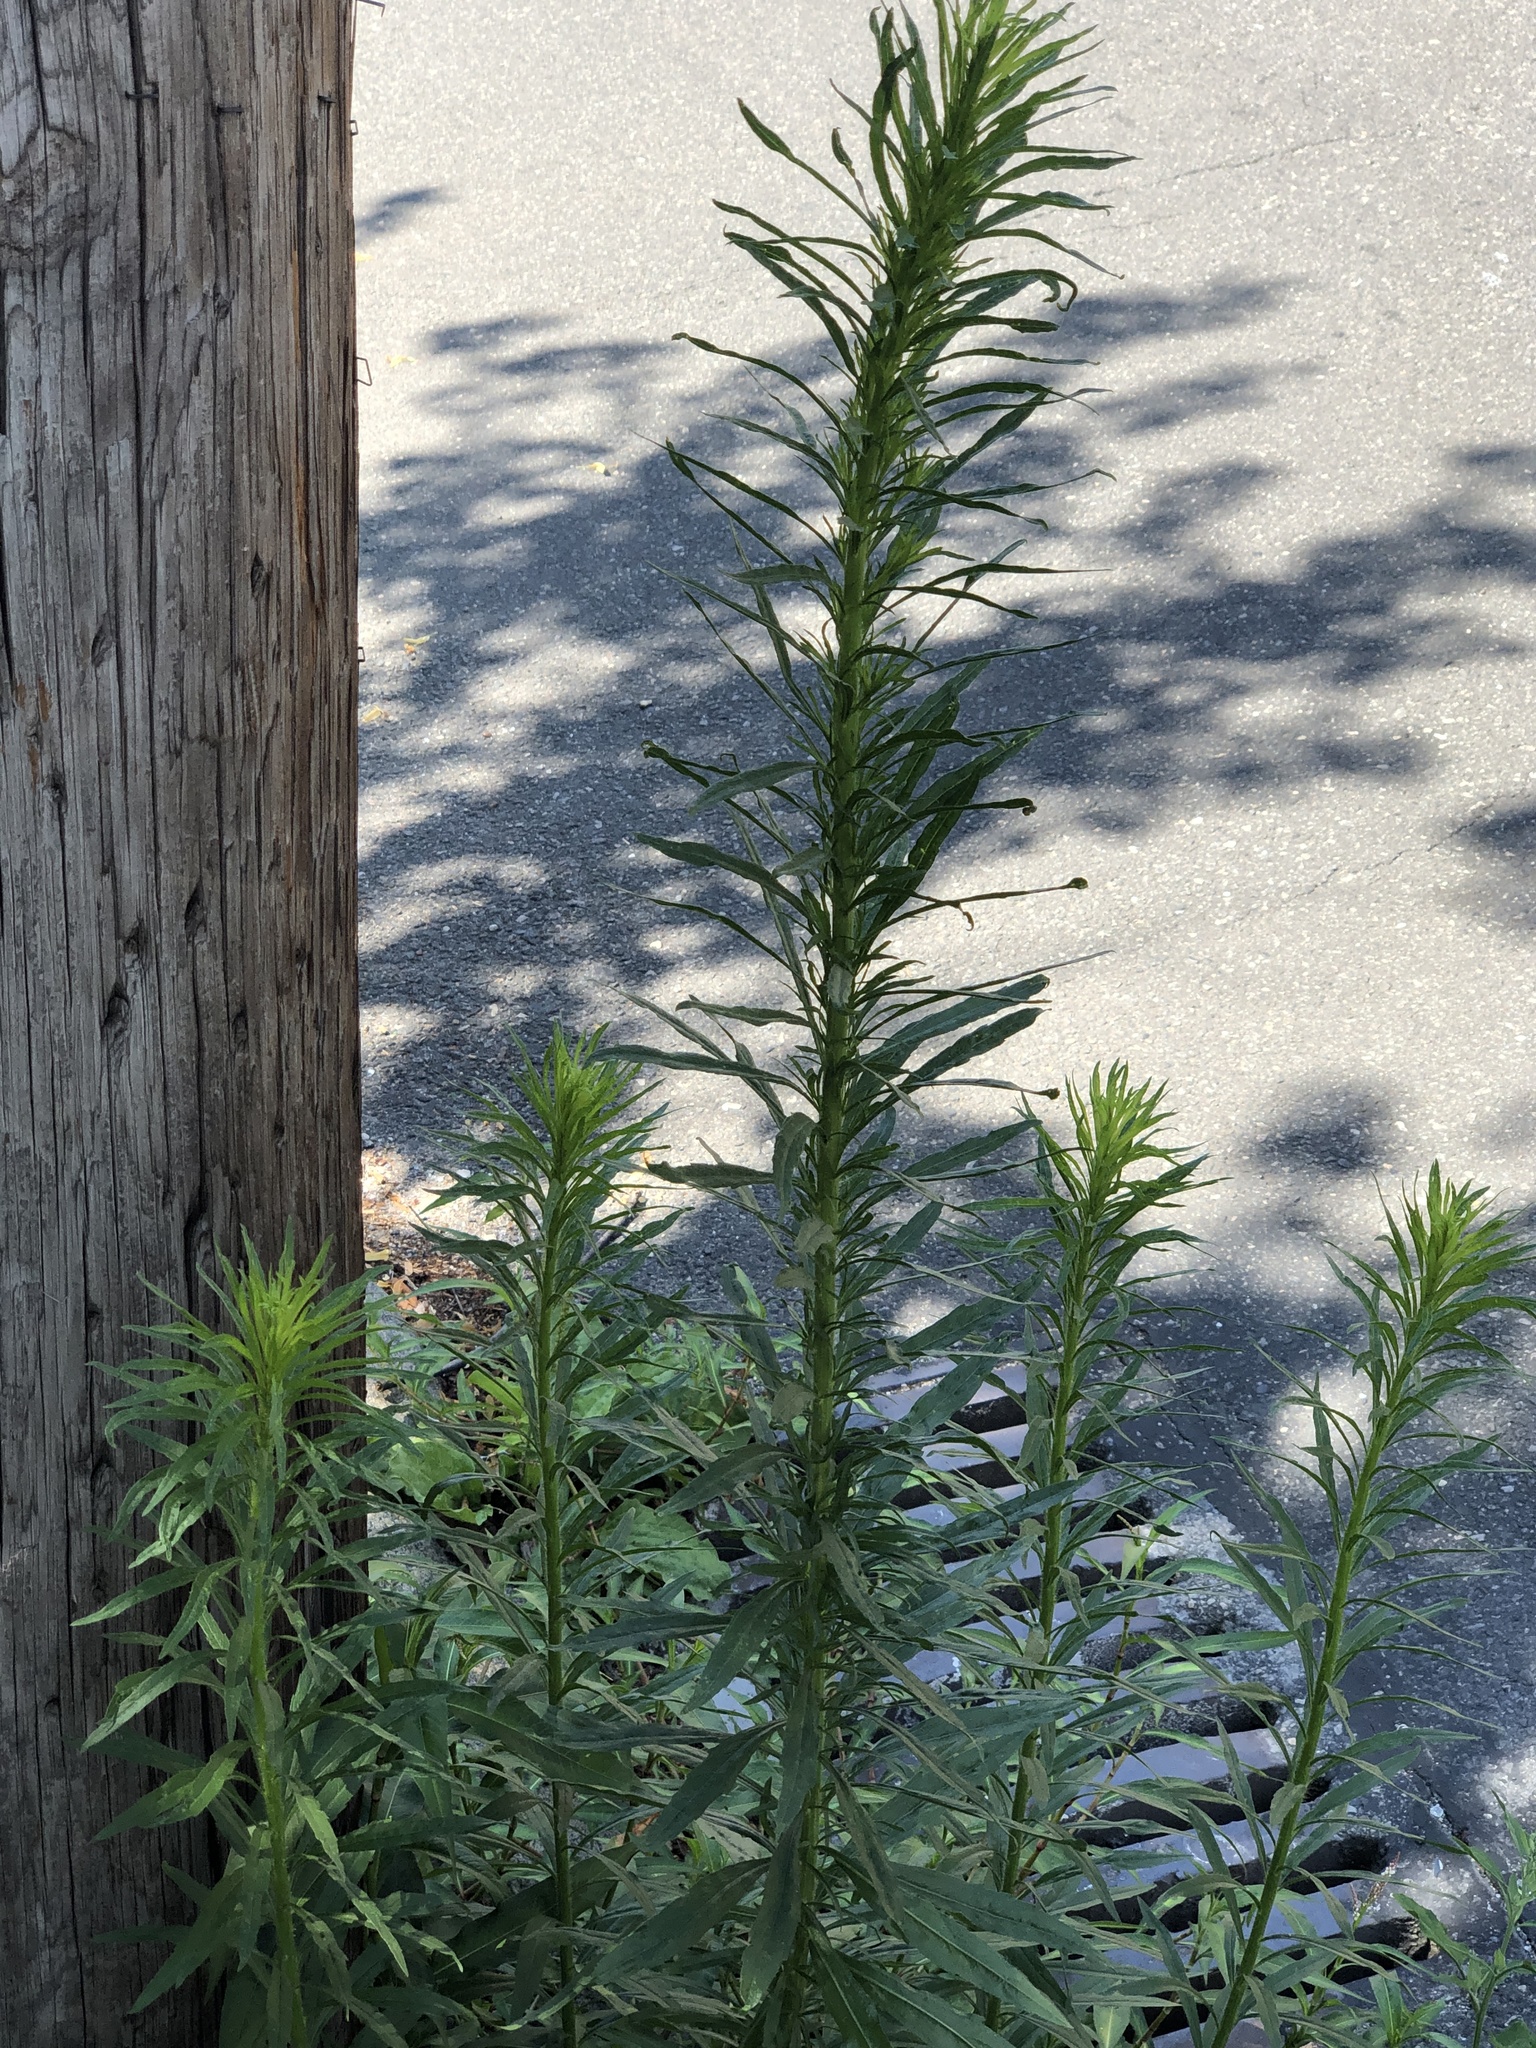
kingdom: Plantae
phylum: Tracheophyta
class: Magnoliopsida
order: Asterales
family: Asteraceae
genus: Erigeron
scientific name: Erigeron canadensis
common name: Canadian fleabane
